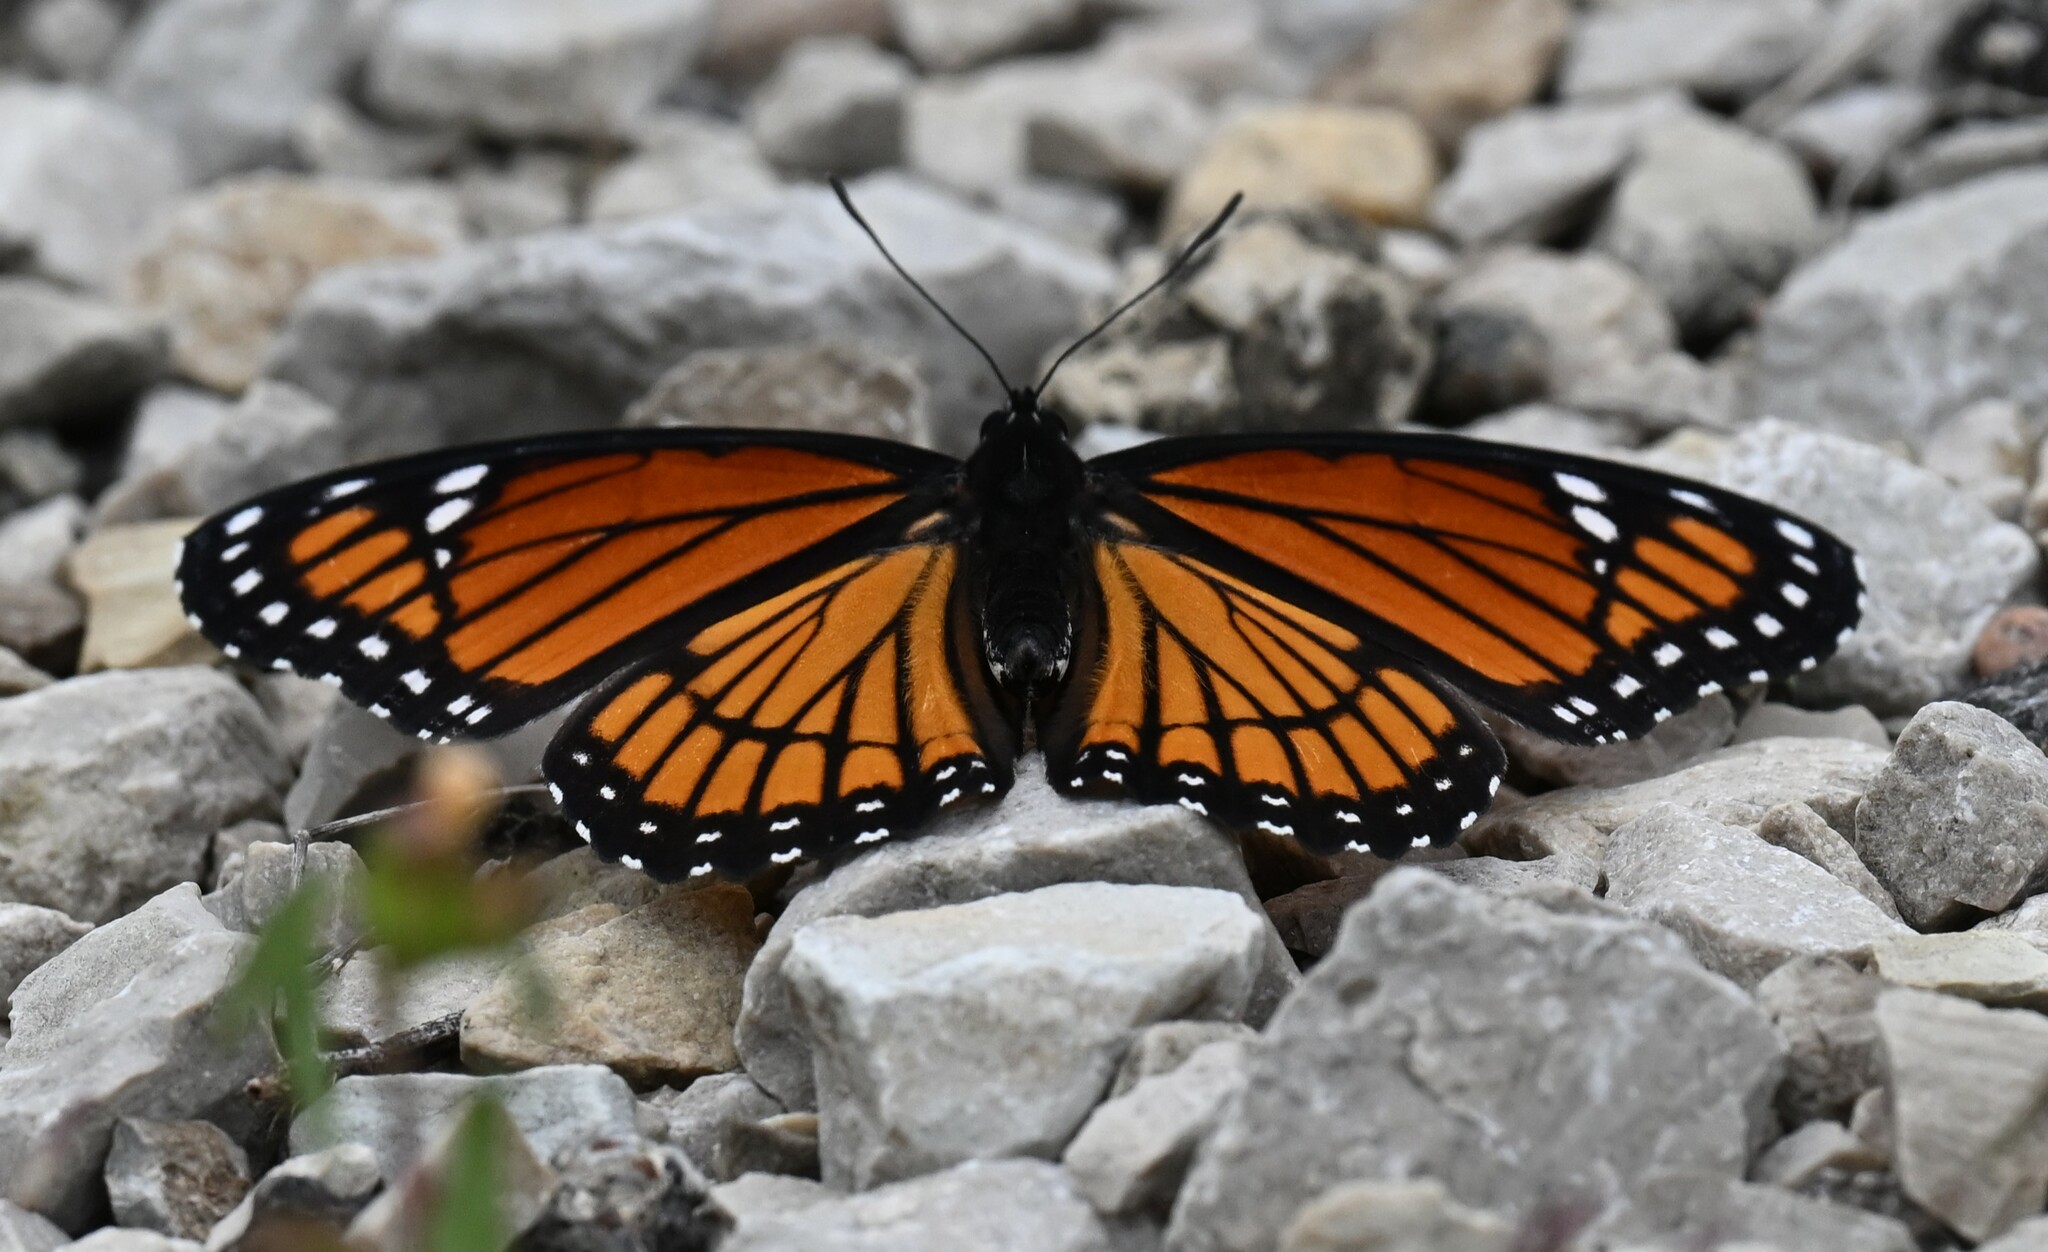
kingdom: Animalia
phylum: Arthropoda
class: Insecta
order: Lepidoptera
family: Nymphalidae
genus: Limenitis
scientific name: Limenitis archippus
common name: Viceroy
